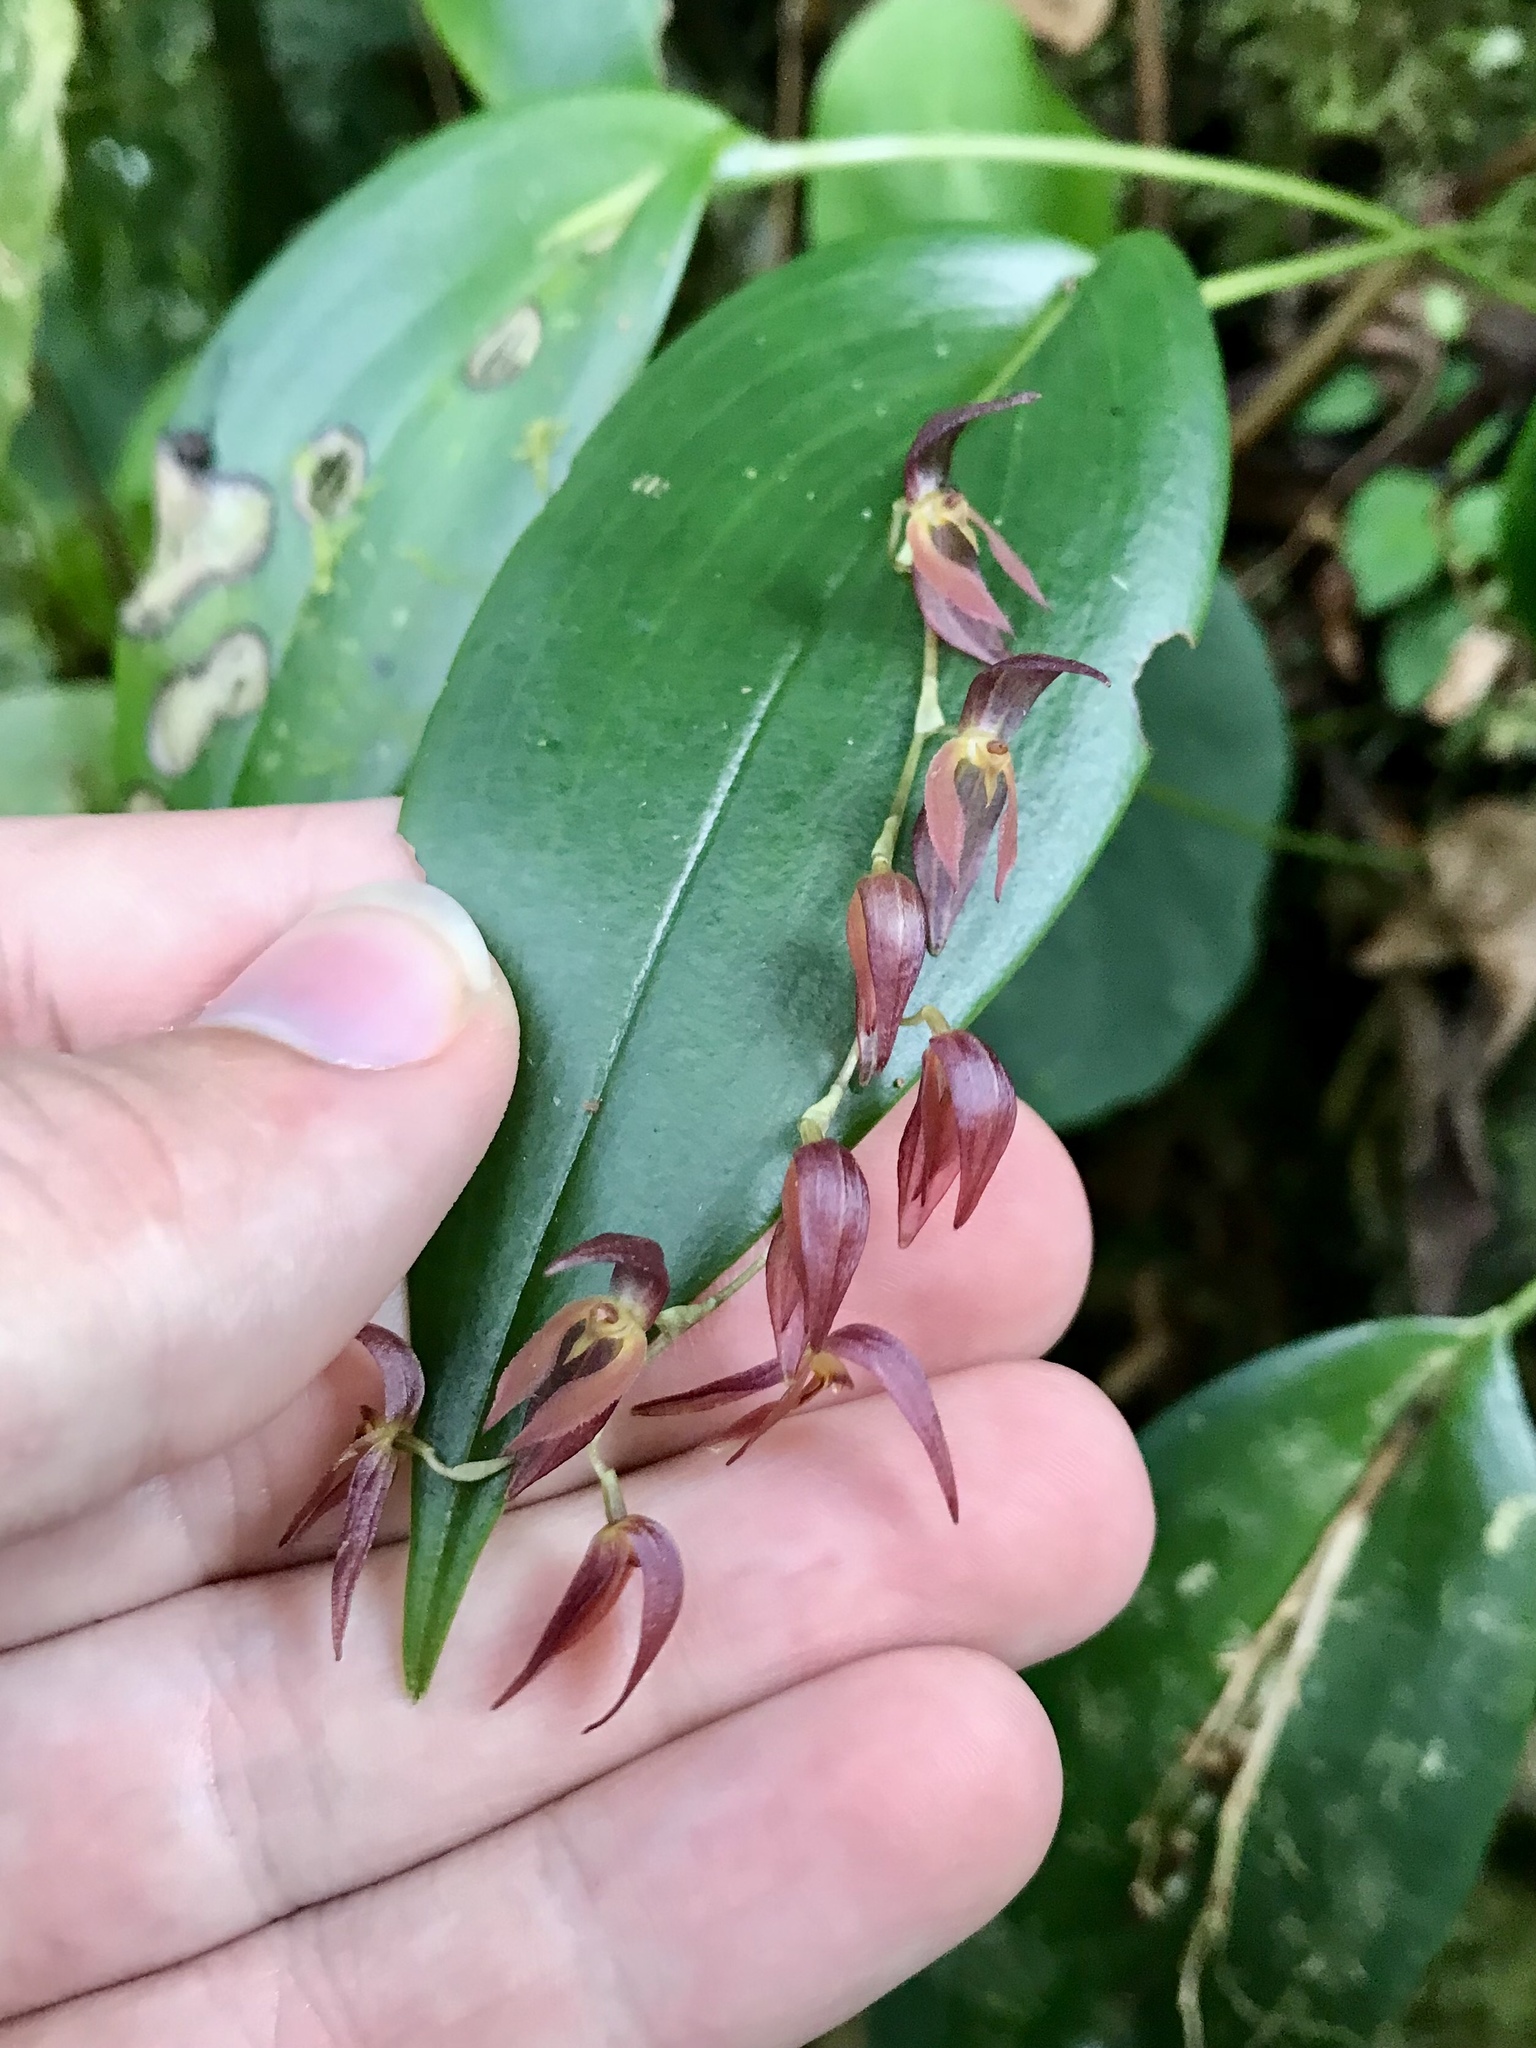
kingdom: Plantae
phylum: Tracheophyta
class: Liliopsida
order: Asparagales
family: Orchidaceae
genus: Pleurothallis
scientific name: Pleurothallis rowleei
